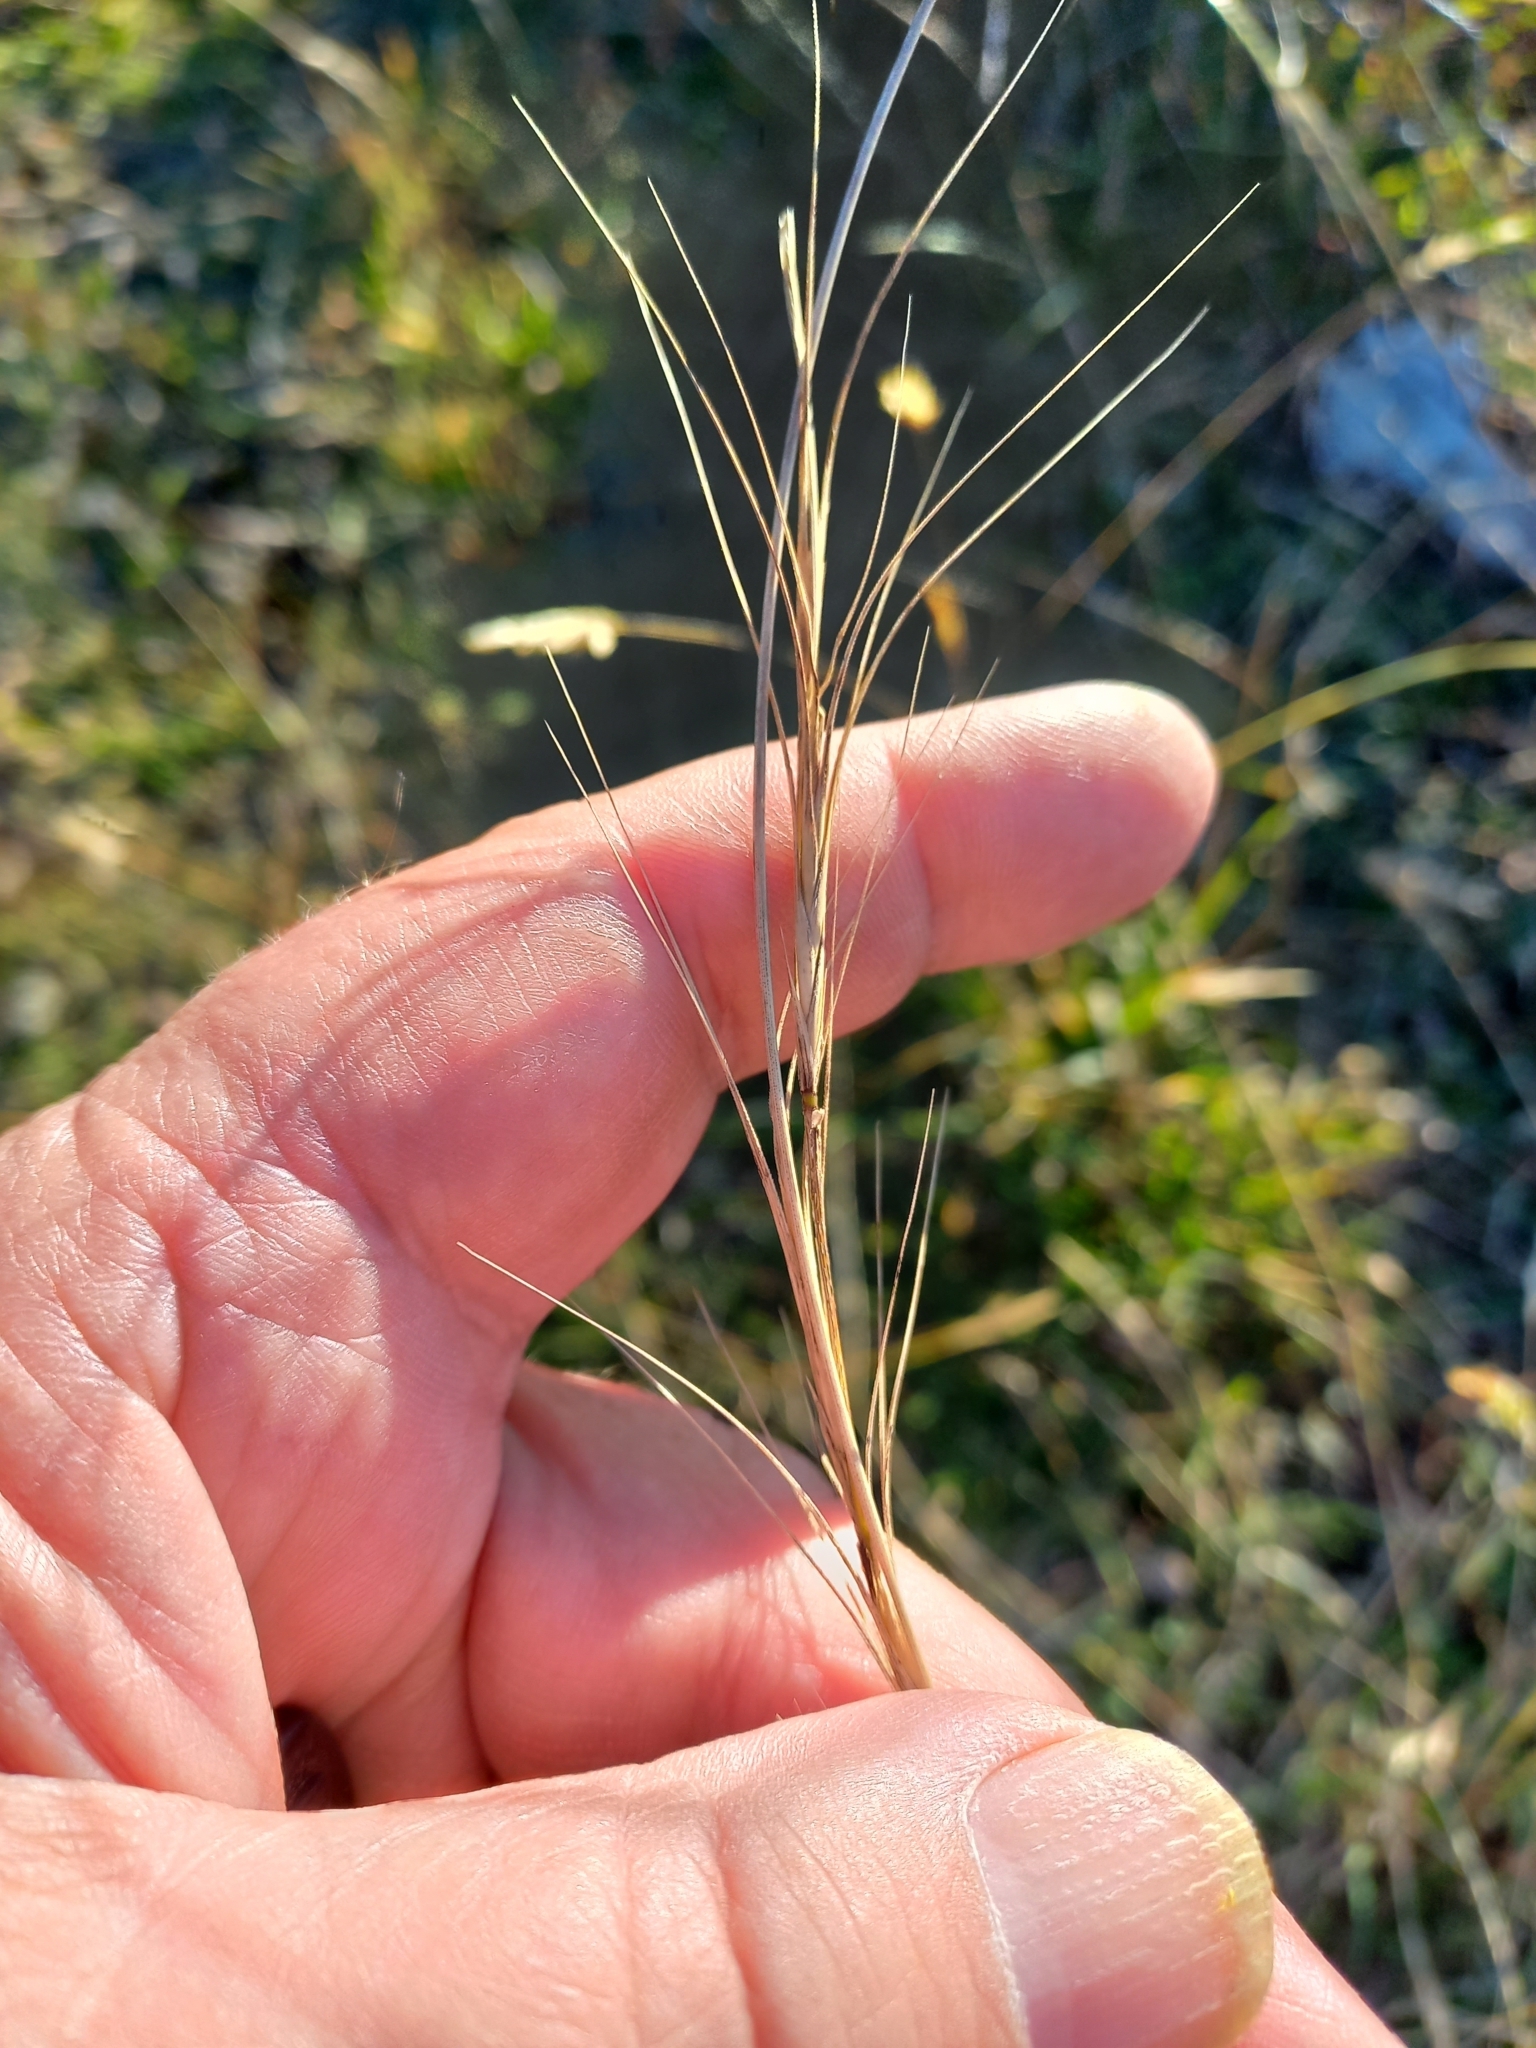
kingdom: Plantae
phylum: Tracheophyta
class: Liliopsida
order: Poales
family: Poaceae
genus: Anthosachne
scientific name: Anthosachne scabra
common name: Common wheatgrass
